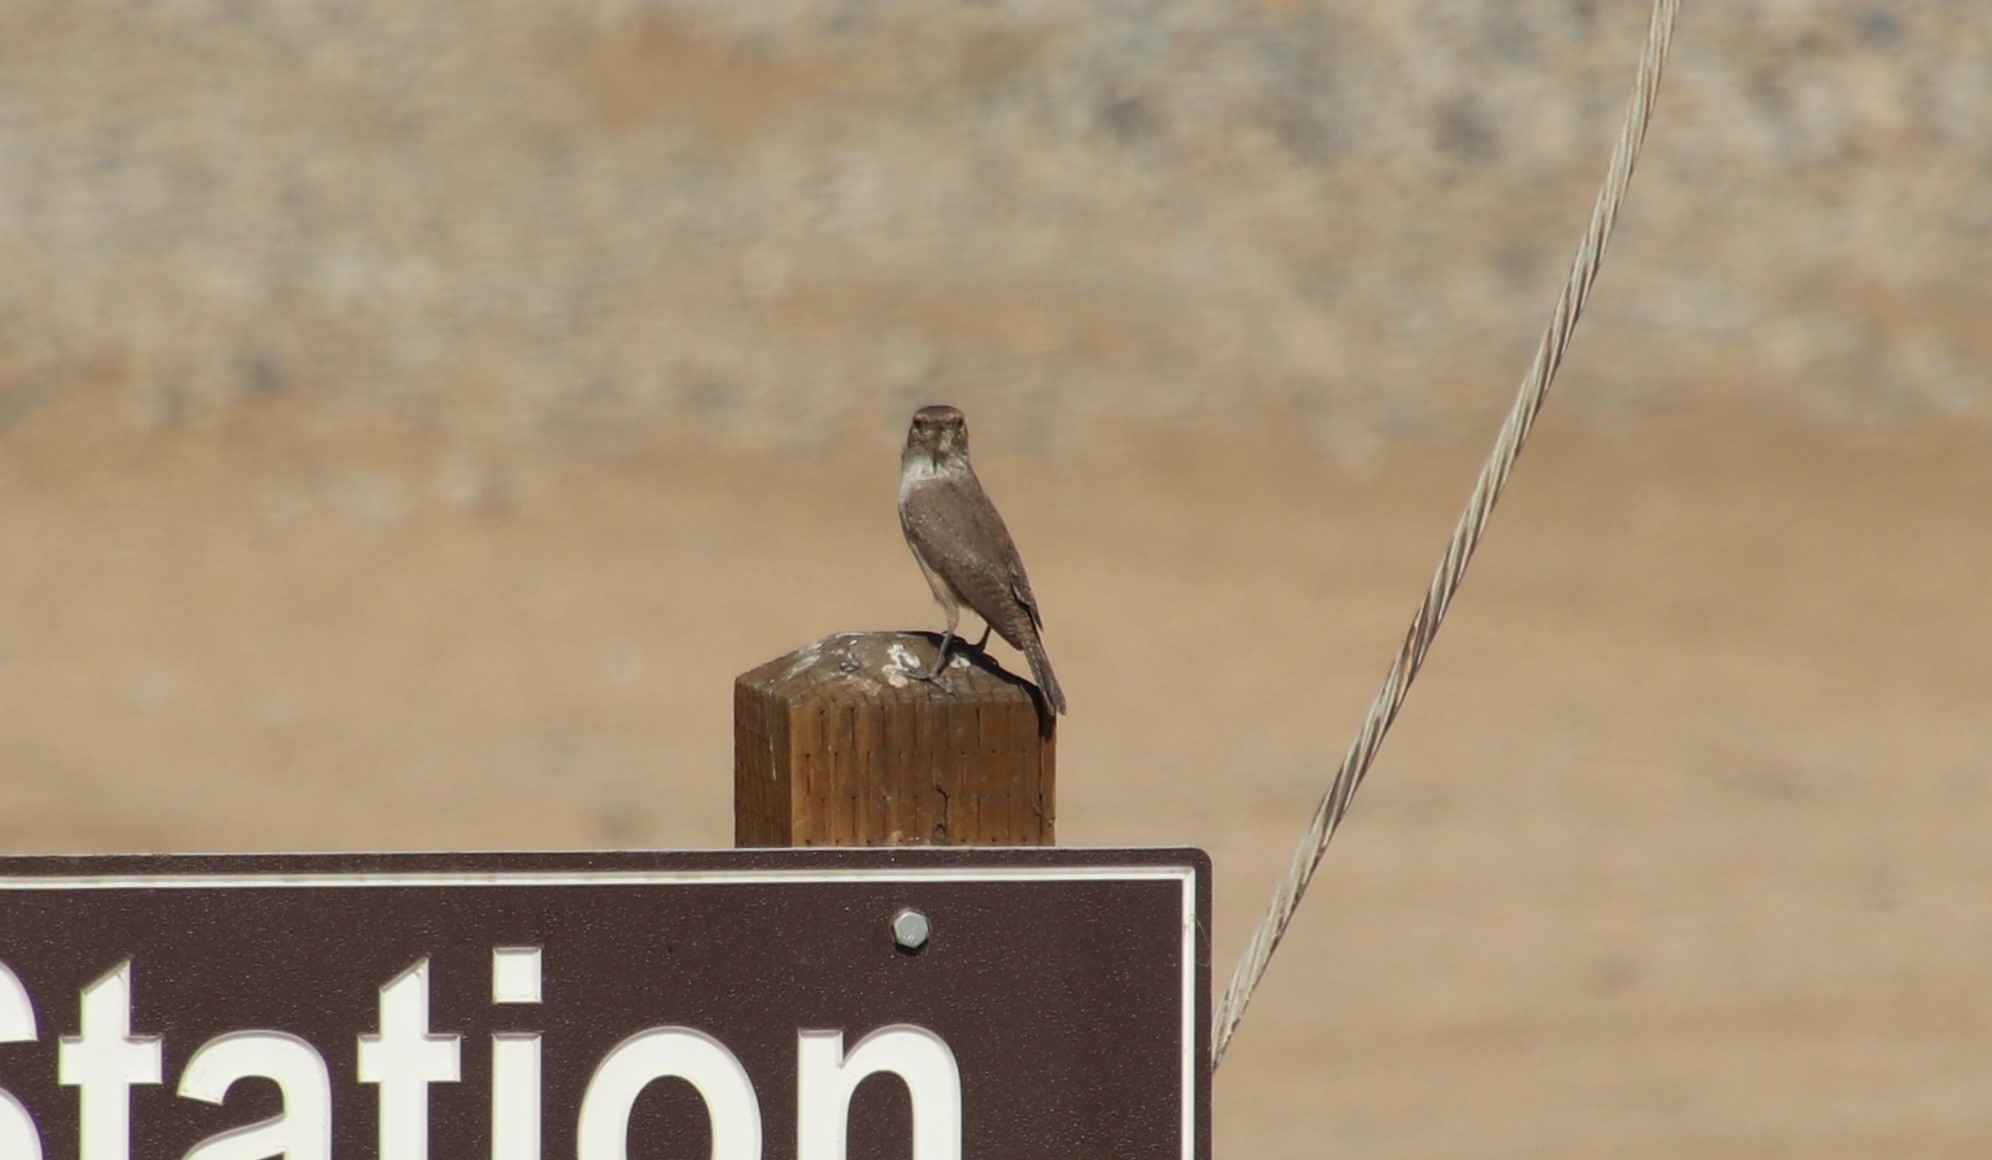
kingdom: Animalia
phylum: Chordata
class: Aves
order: Passeriformes
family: Troglodytidae
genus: Salpinctes
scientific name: Salpinctes obsoletus
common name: Rock wren
